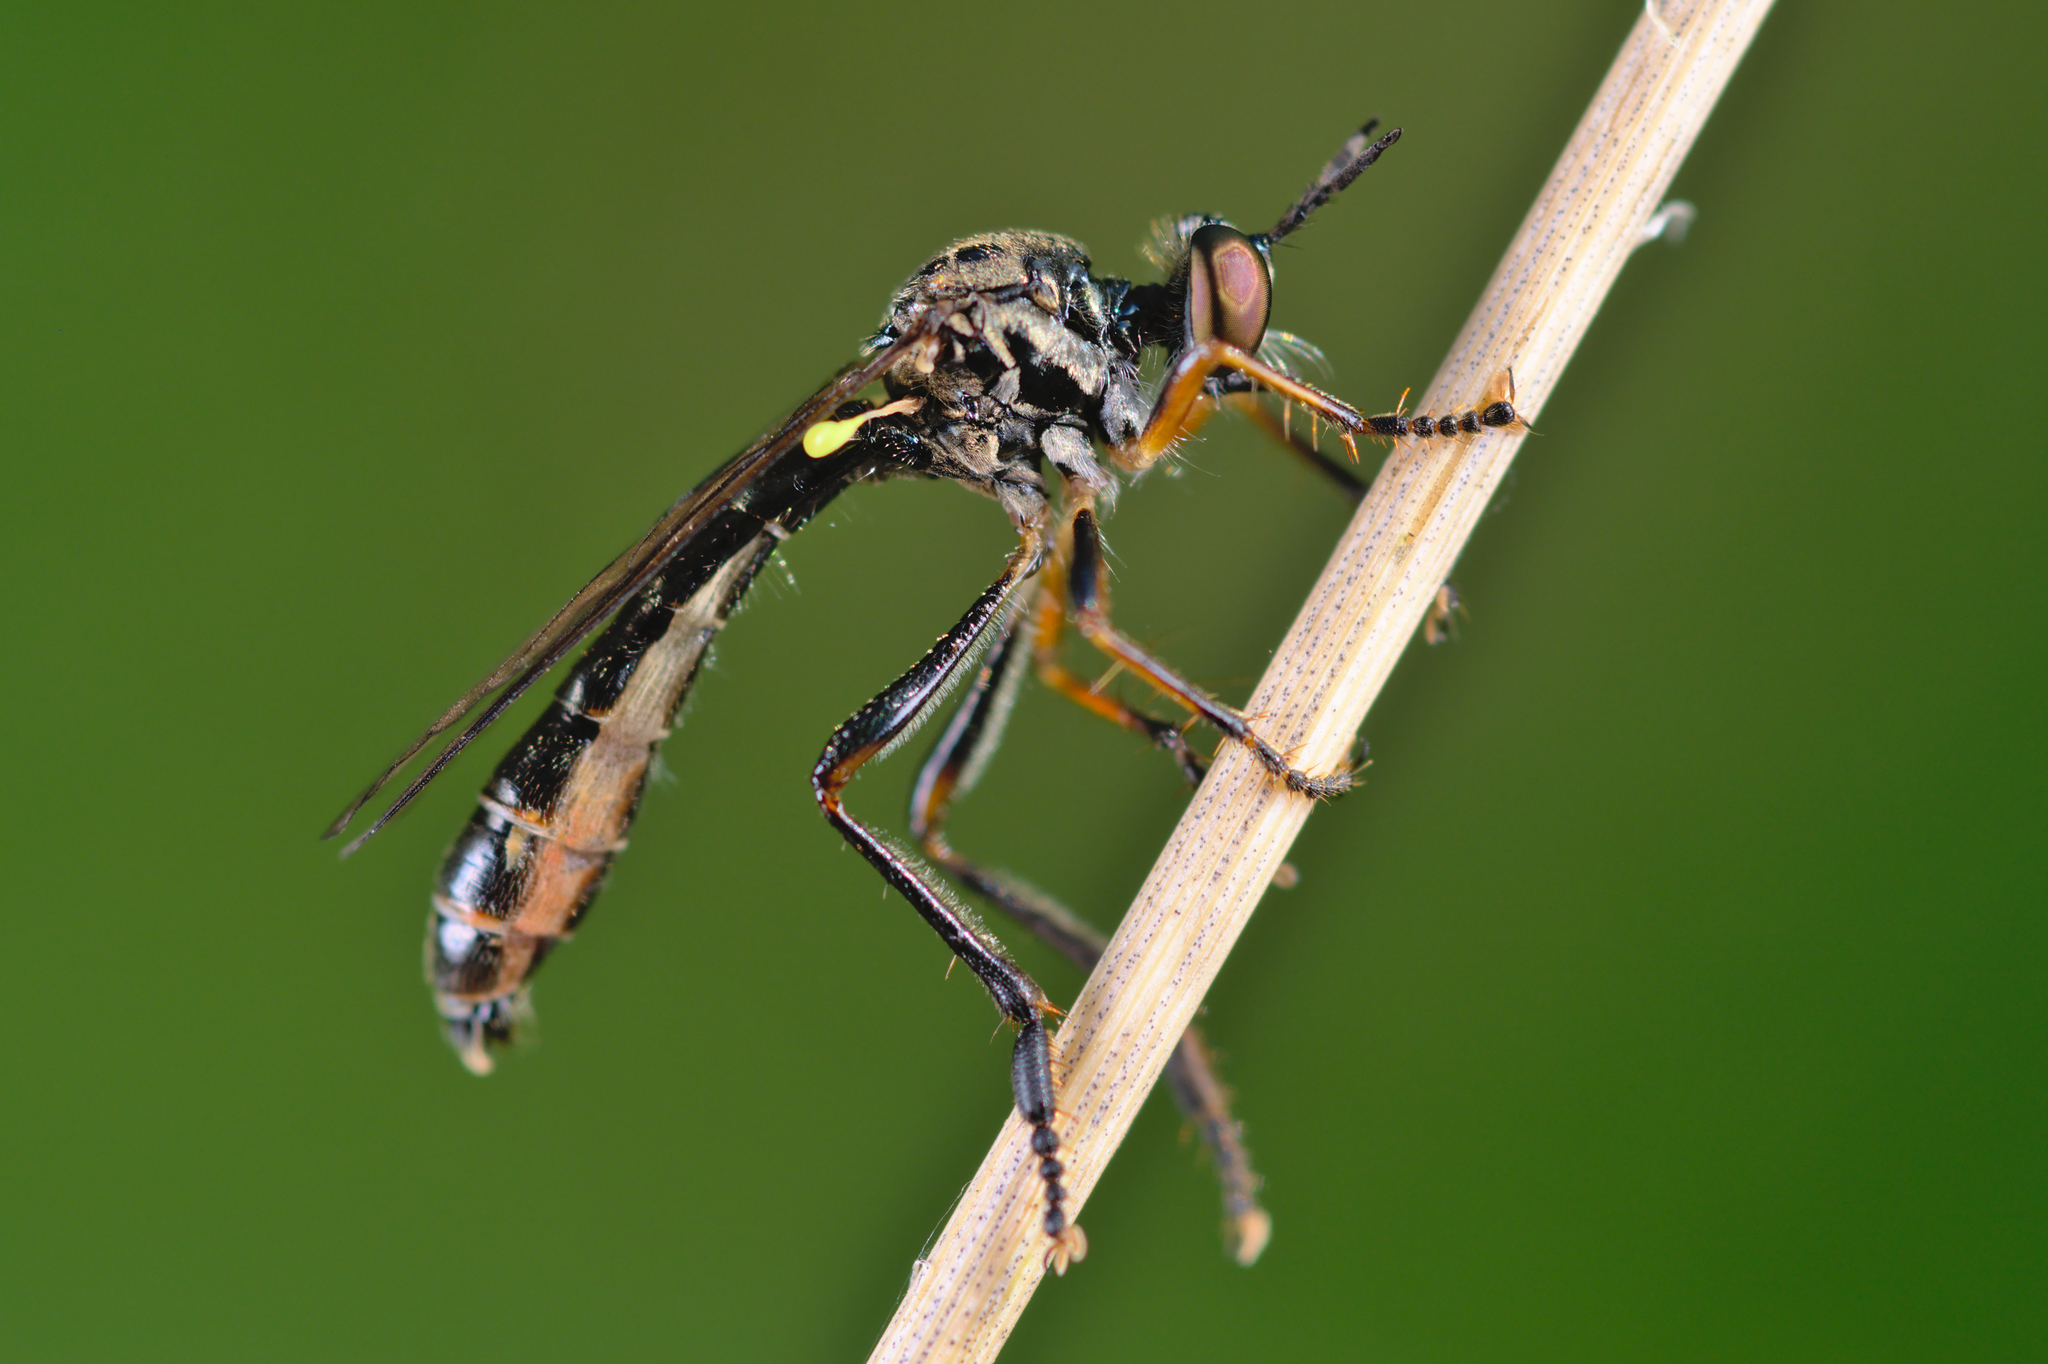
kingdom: Animalia
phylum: Arthropoda
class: Insecta
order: Diptera
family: Asilidae
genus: Dioctria
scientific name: Dioctria hyalipennis
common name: Stripe-legged robberfly
